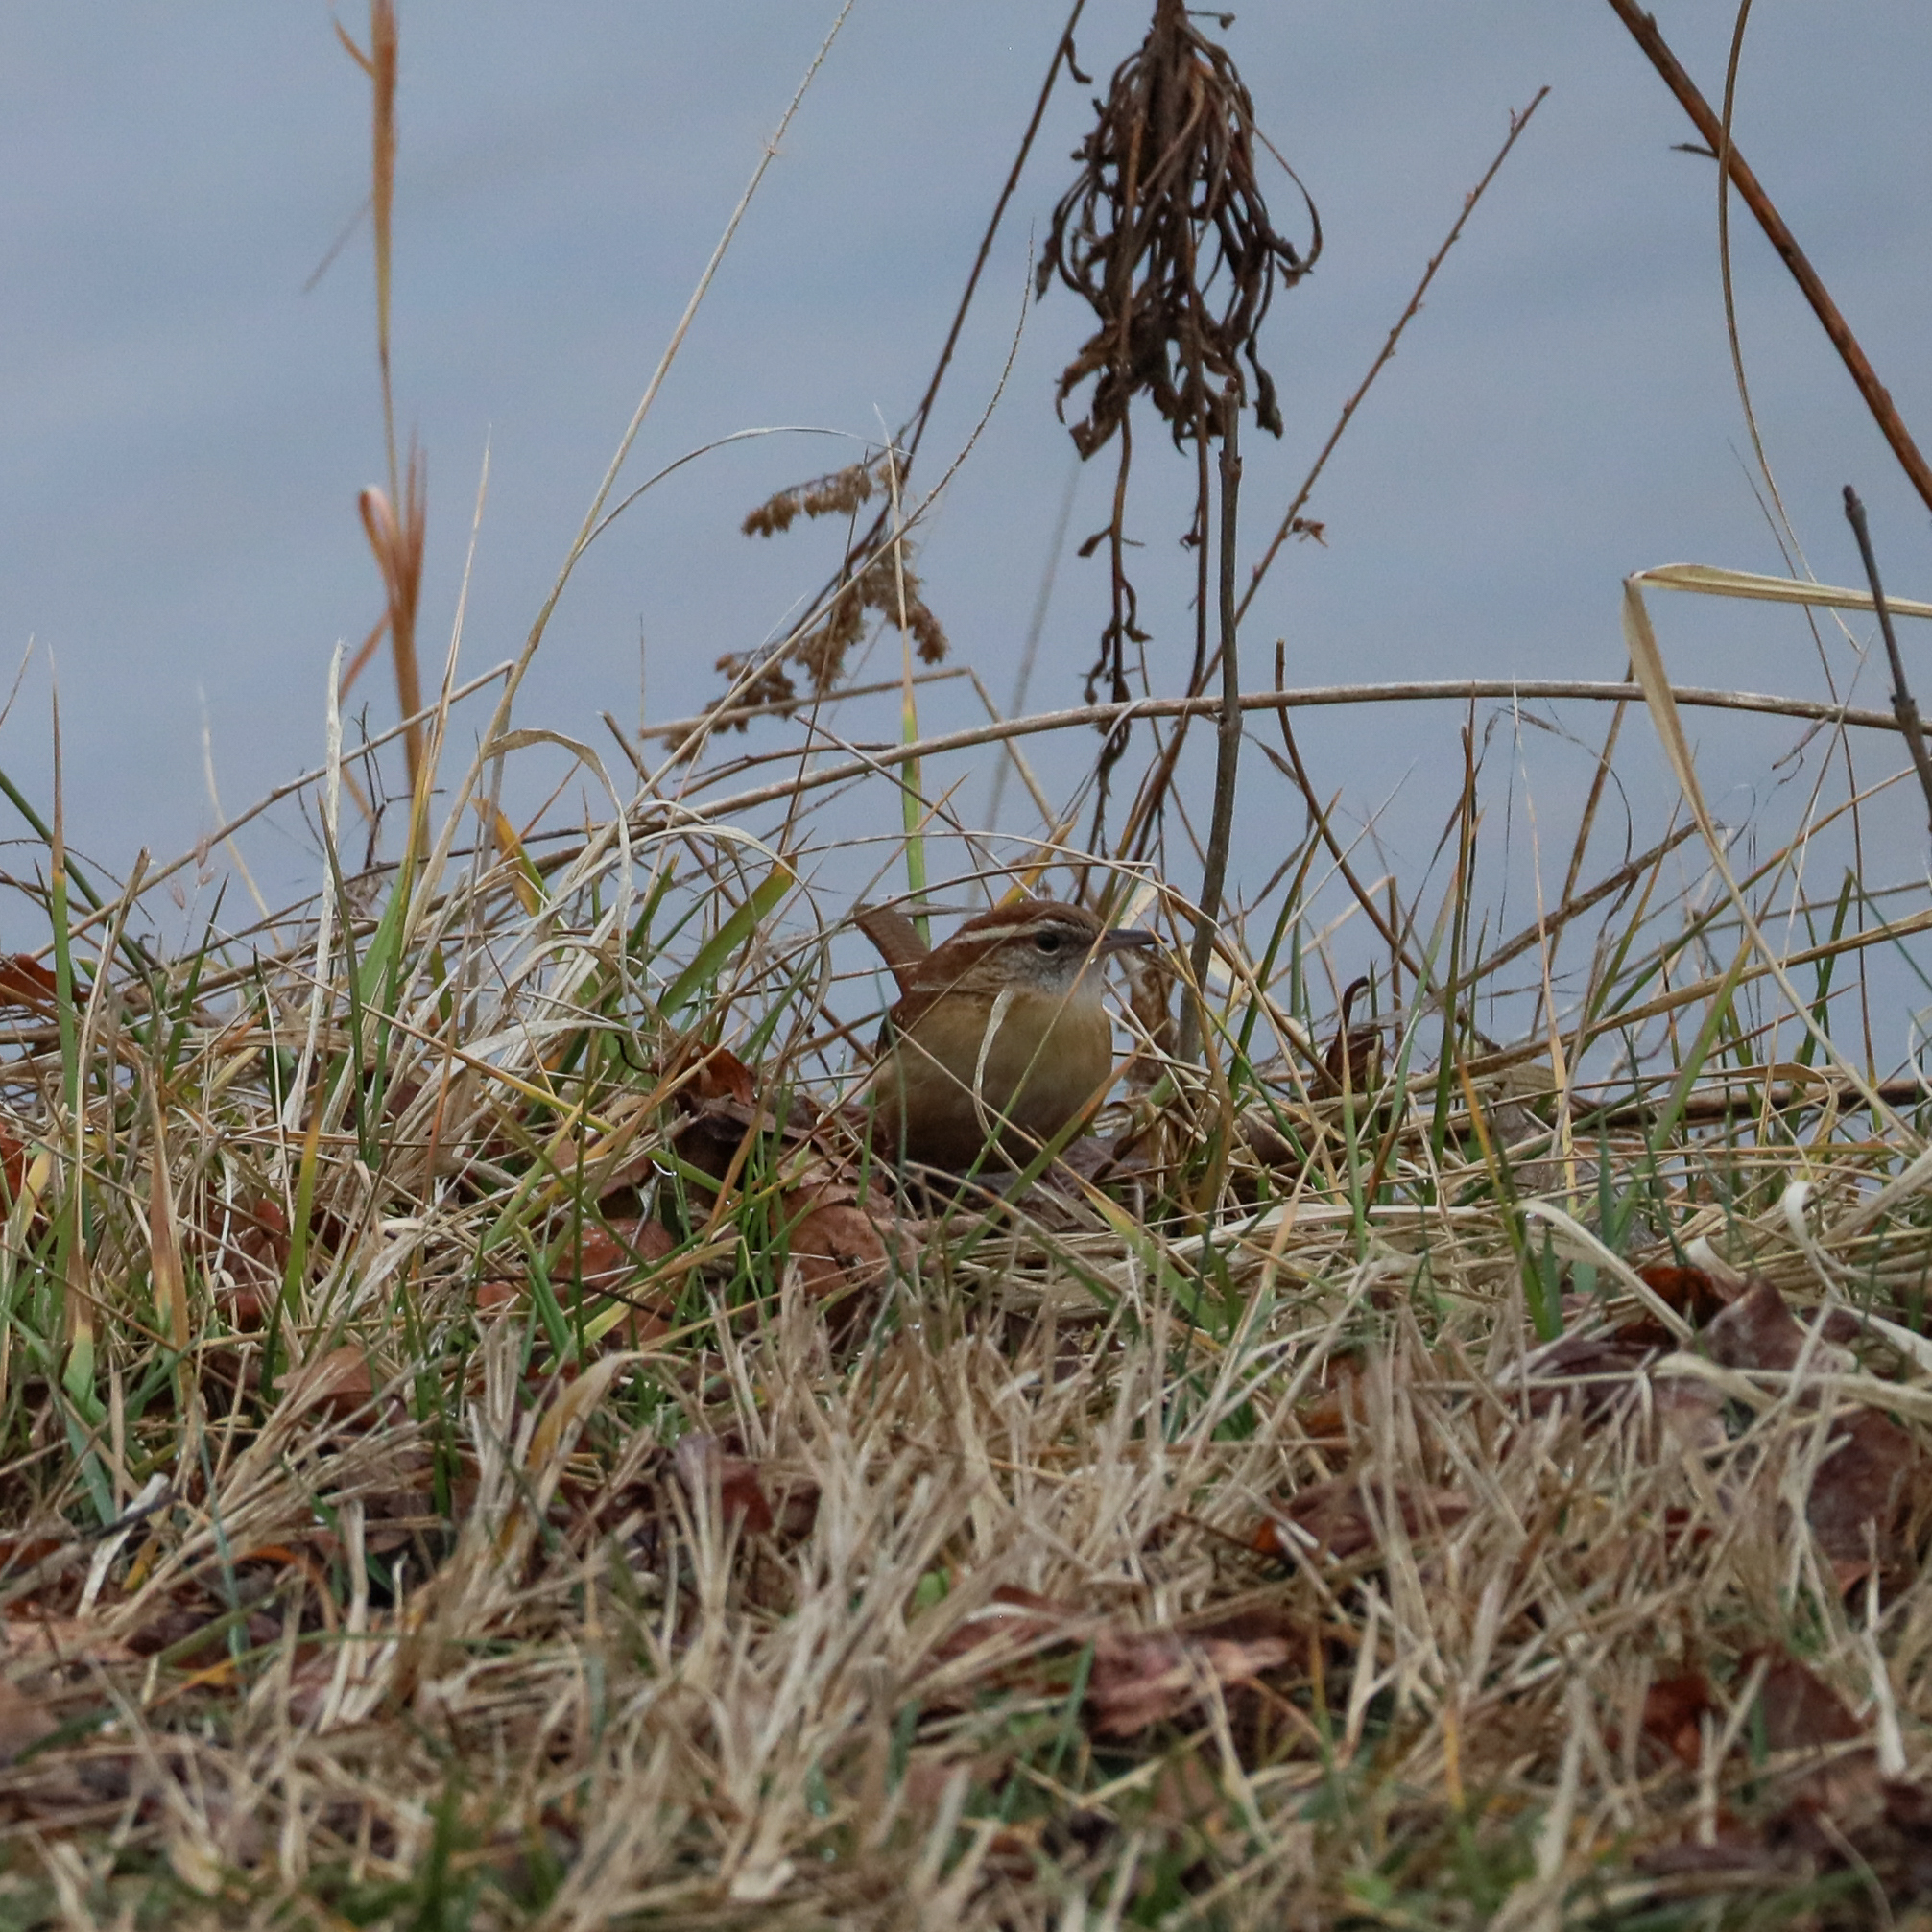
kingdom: Animalia
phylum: Chordata
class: Aves
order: Passeriformes
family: Troglodytidae
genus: Thryothorus
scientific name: Thryothorus ludovicianus
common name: Carolina wren
